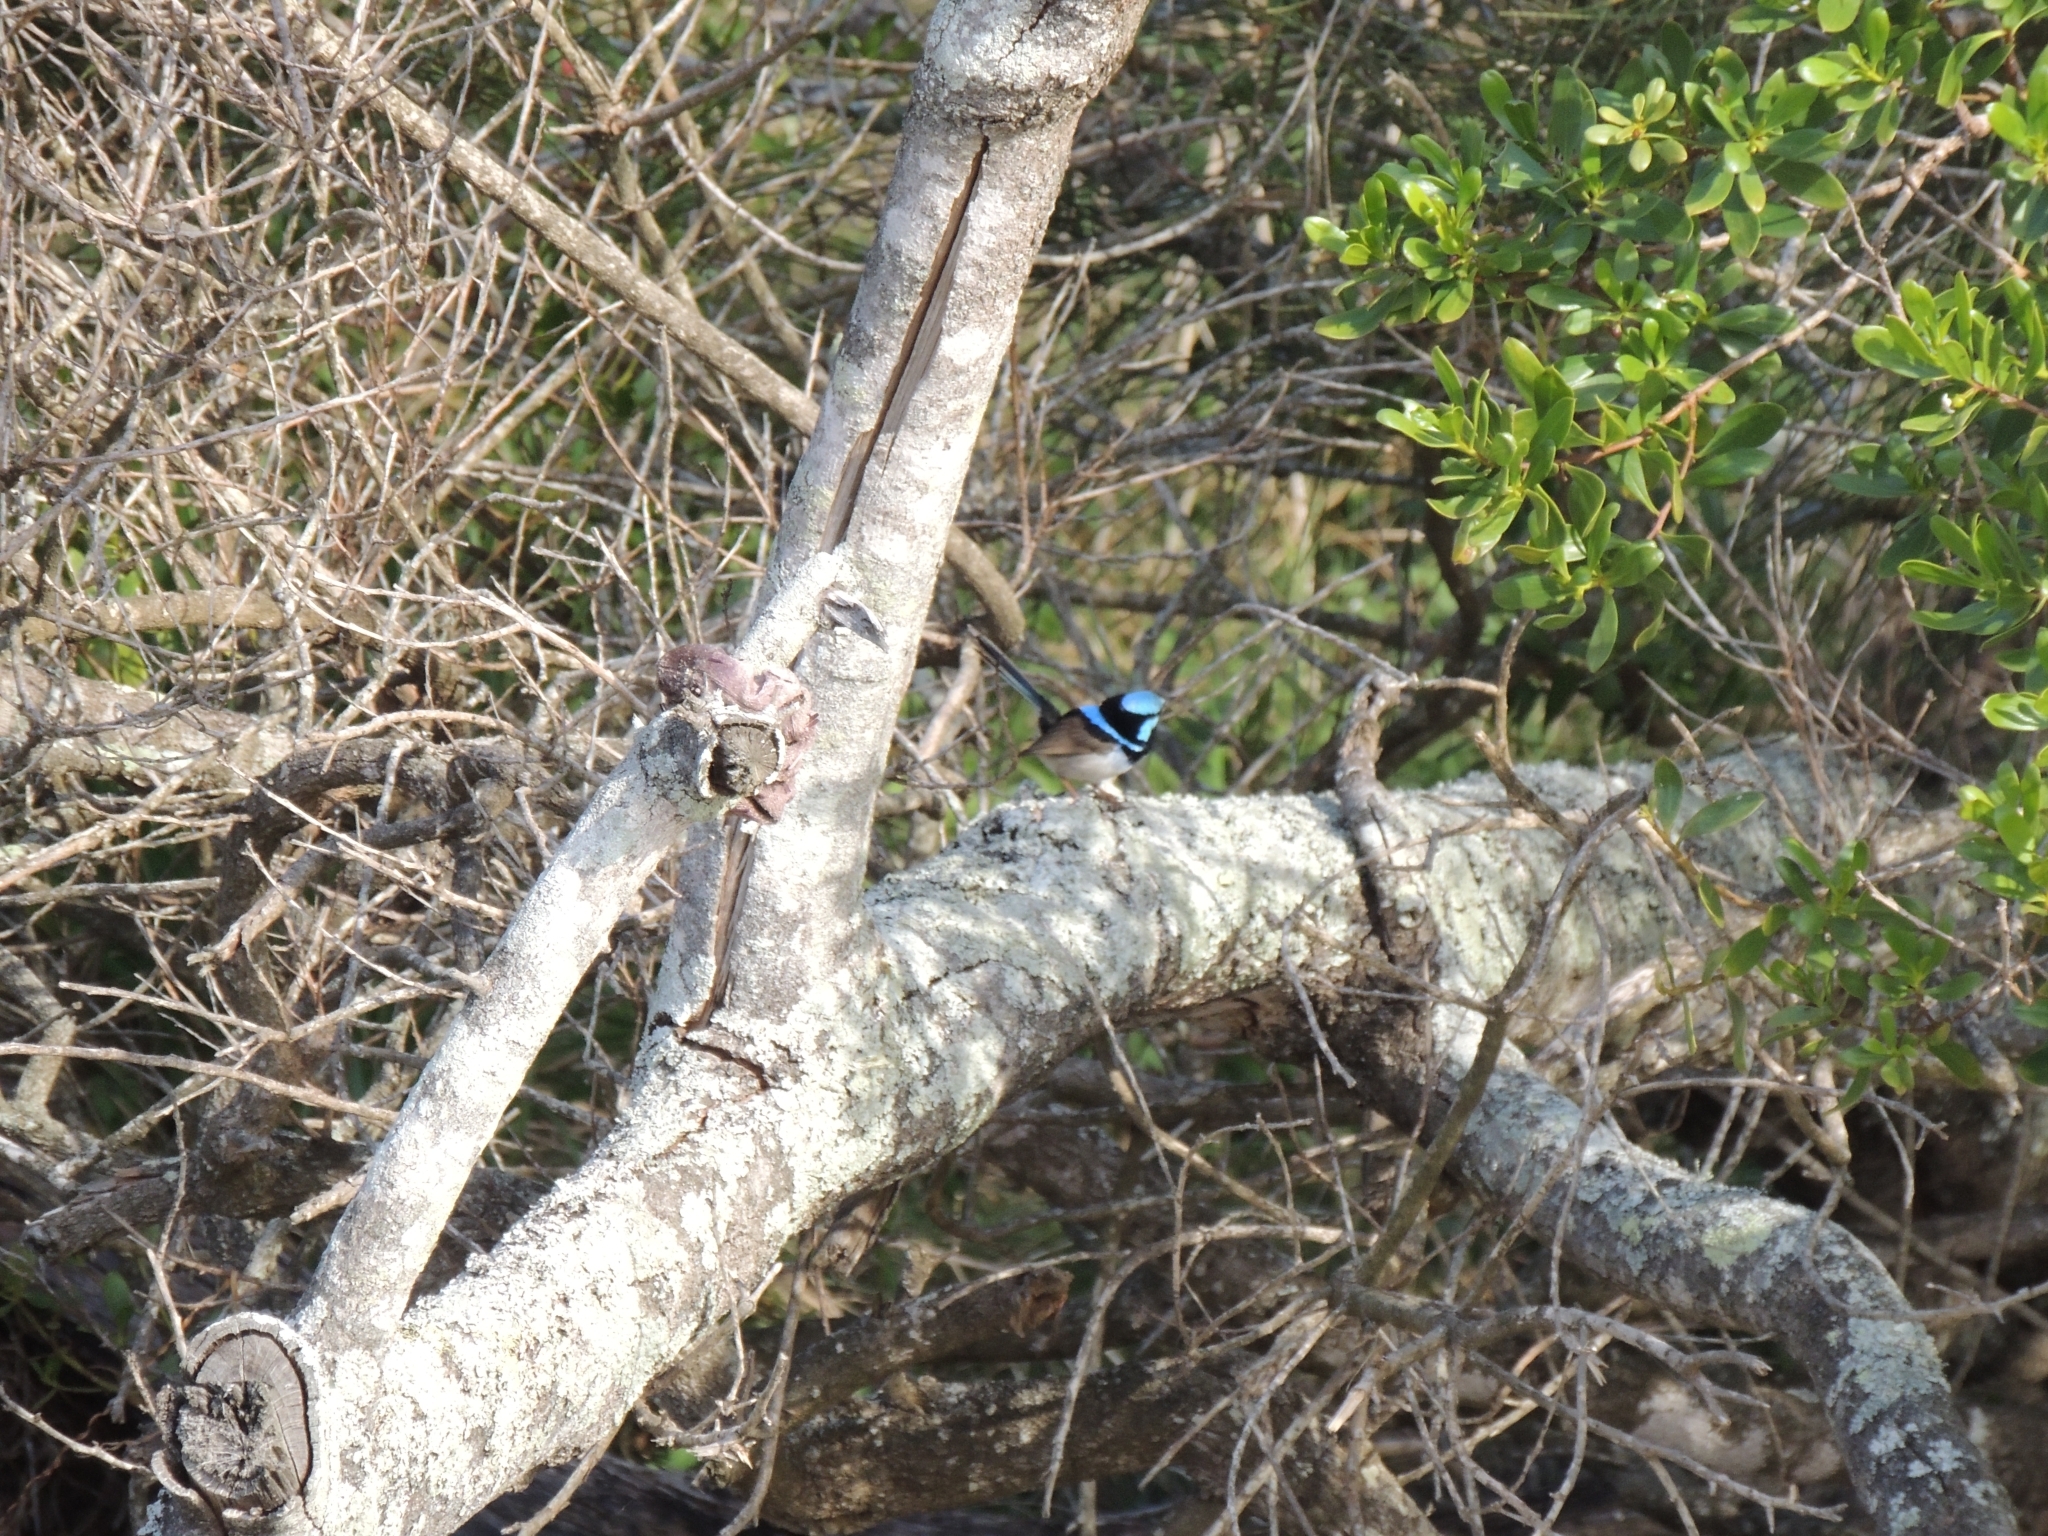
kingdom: Animalia
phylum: Chordata
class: Aves
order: Passeriformes
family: Maluridae
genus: Malurus
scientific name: Malurus cyaneus
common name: Superb fairywren
